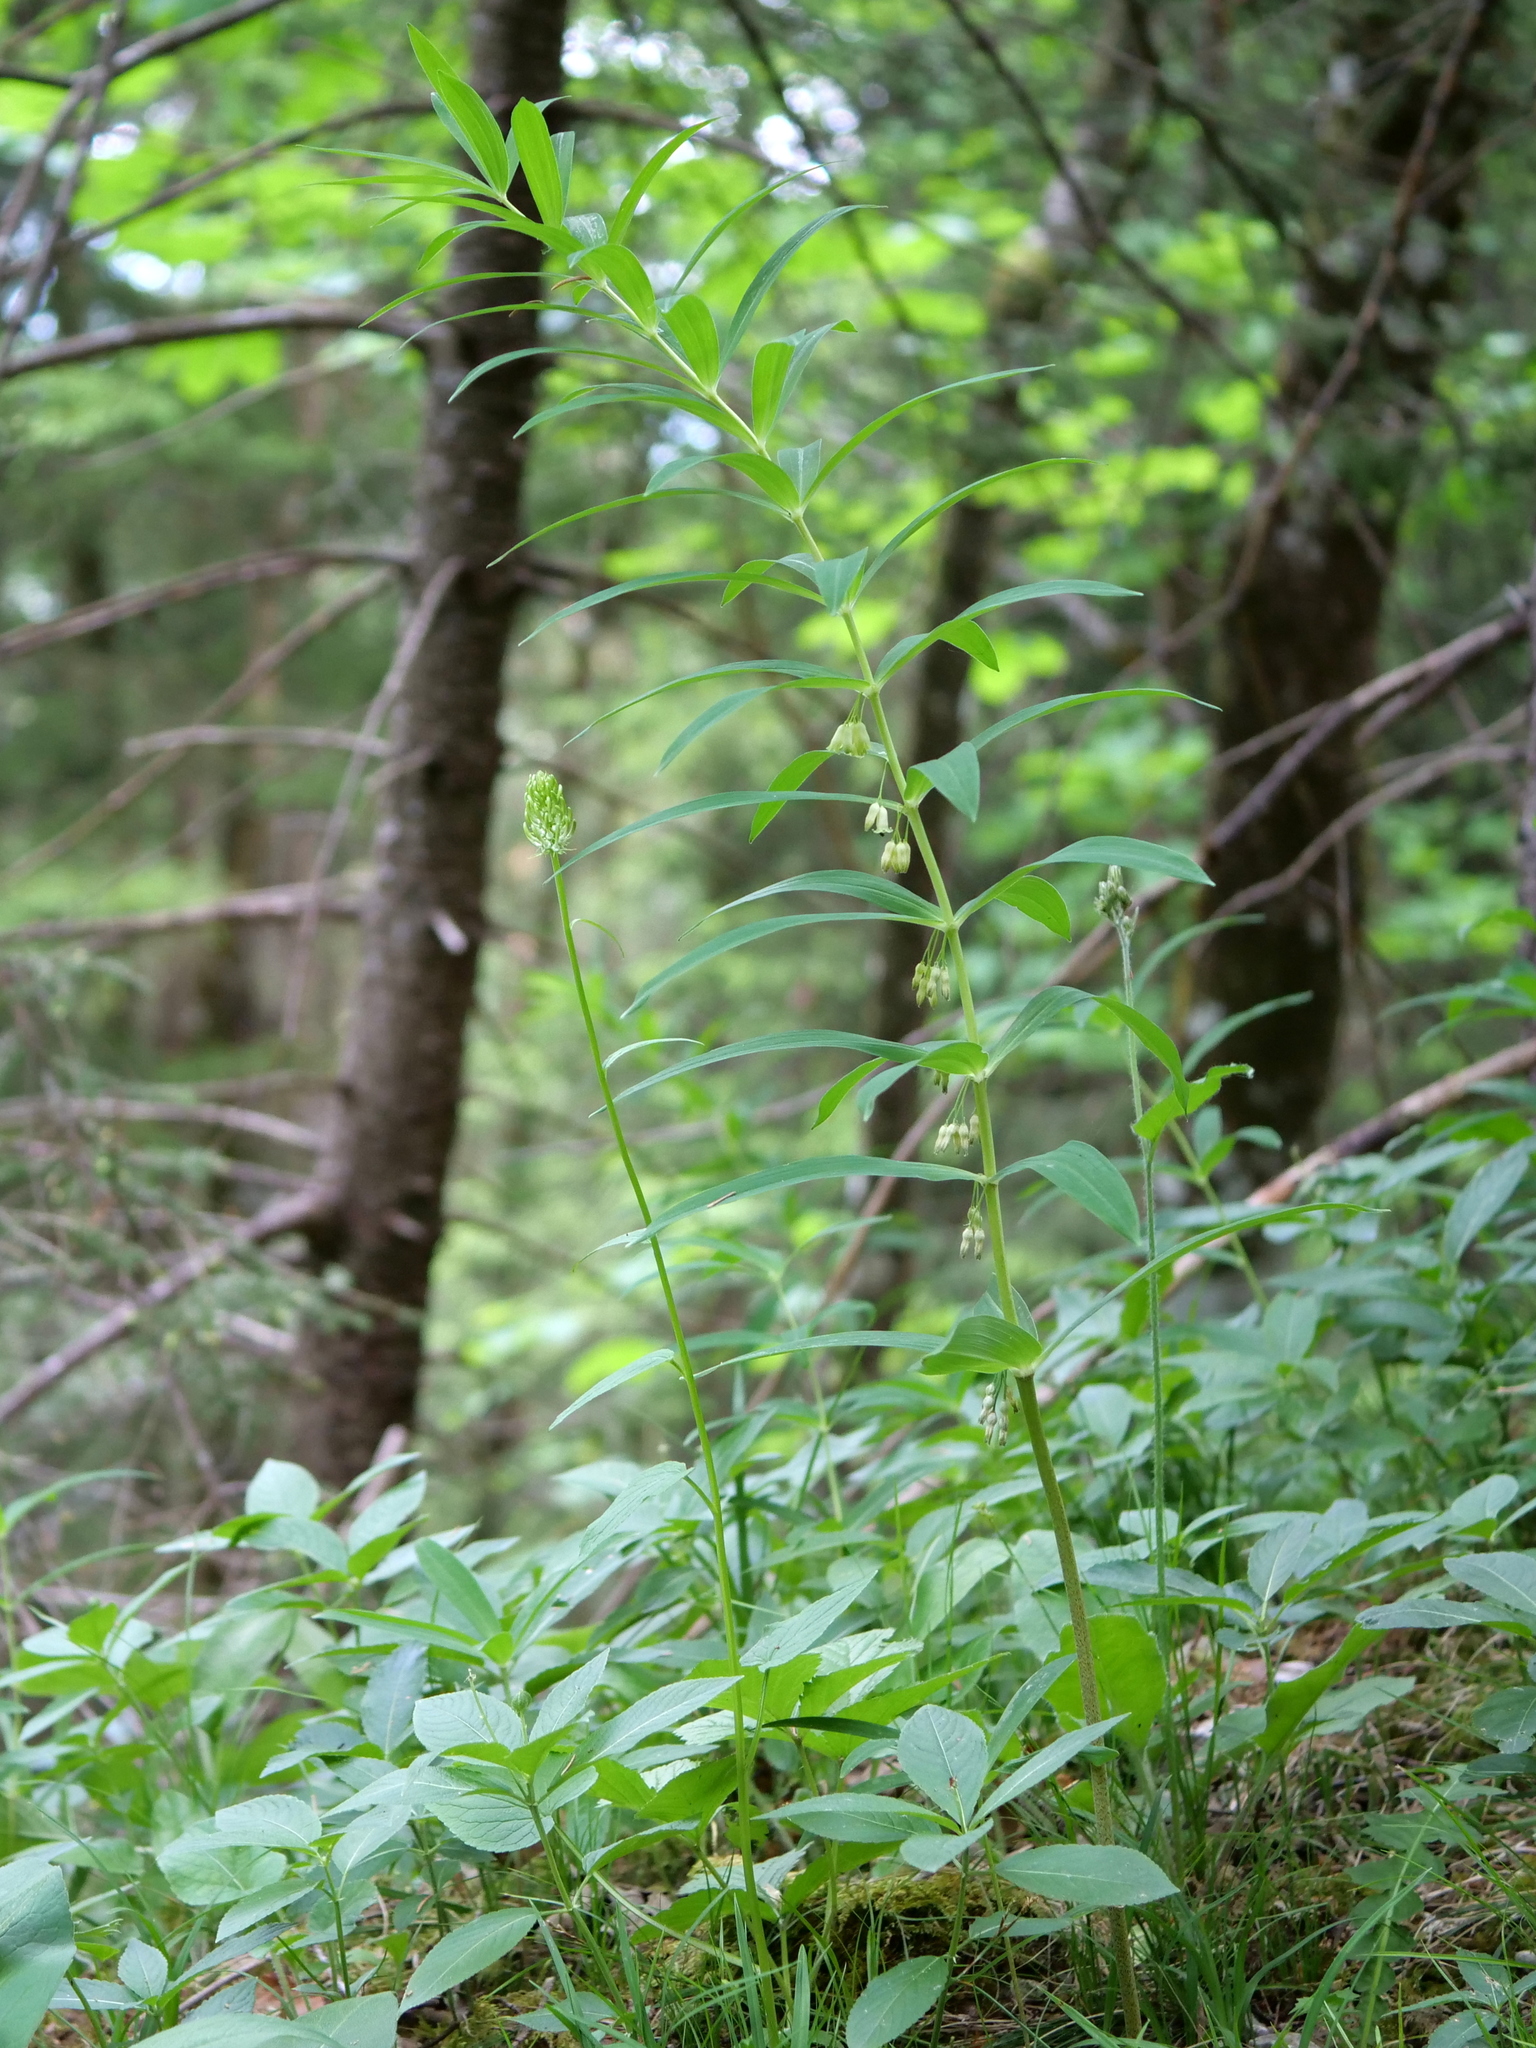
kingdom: Plantae
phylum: Tracheophyta
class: Liliopsida
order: Asparagales
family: Asparagaceae
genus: Polygonatum
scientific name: Polygonatum verticillatum
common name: Whorled solomon's-seal
